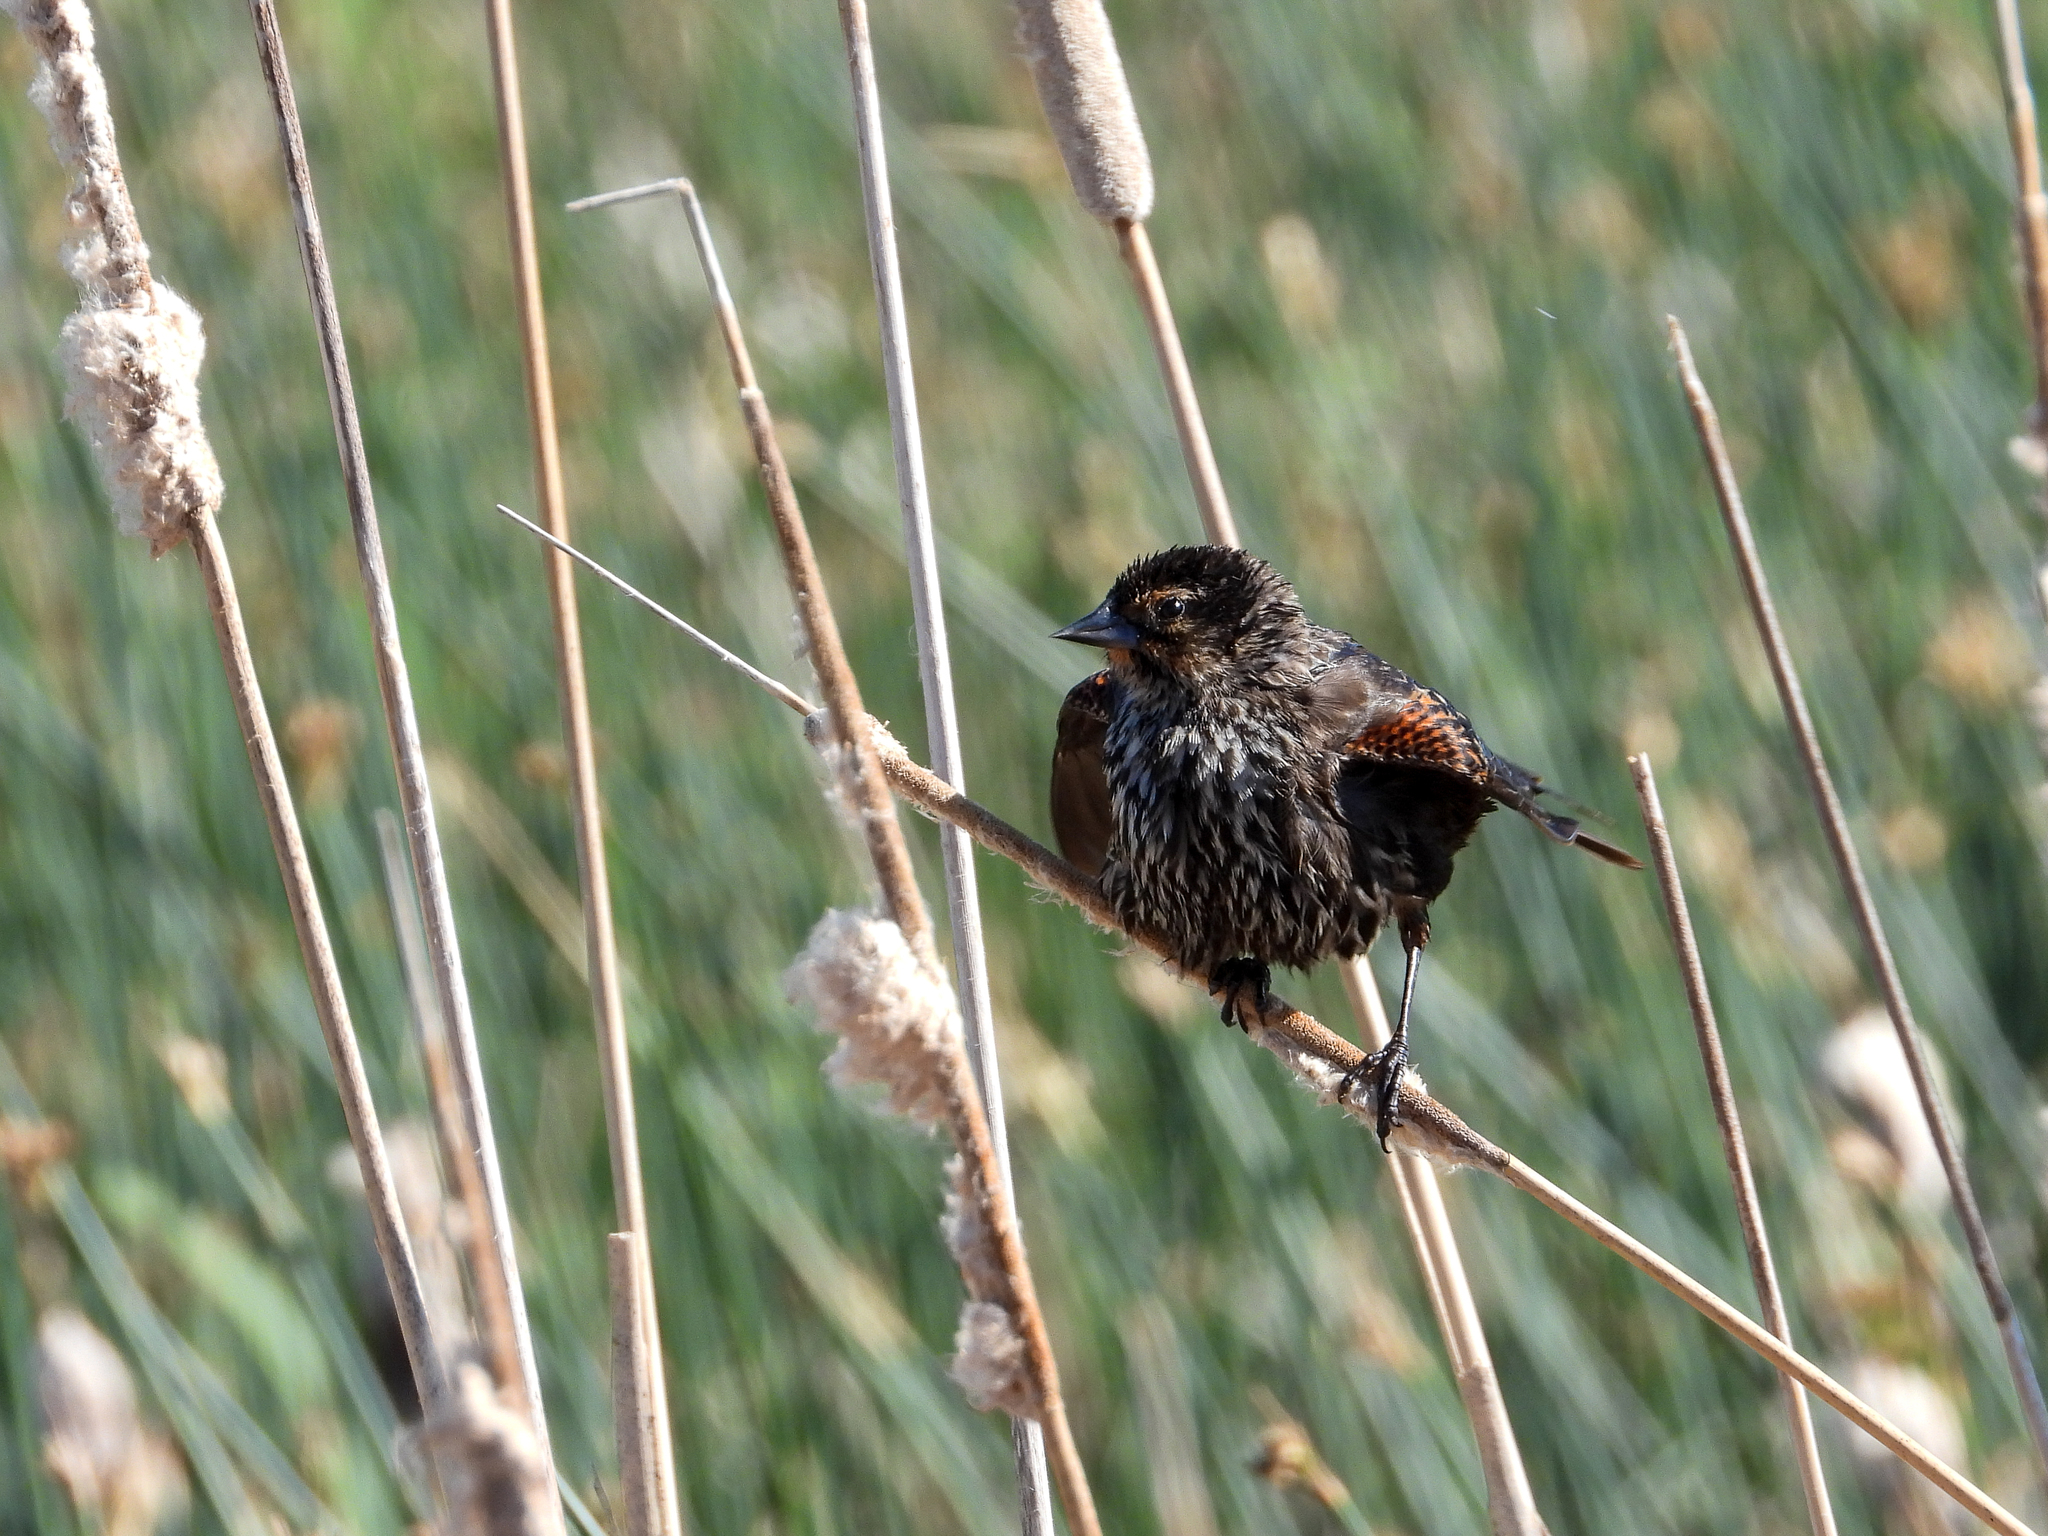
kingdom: Animalia
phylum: Chordata
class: Aves
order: Passeriformes
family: Icteridae
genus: Agelaius
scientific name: Agelaius phoeniceus
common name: Red-winged blackbird
